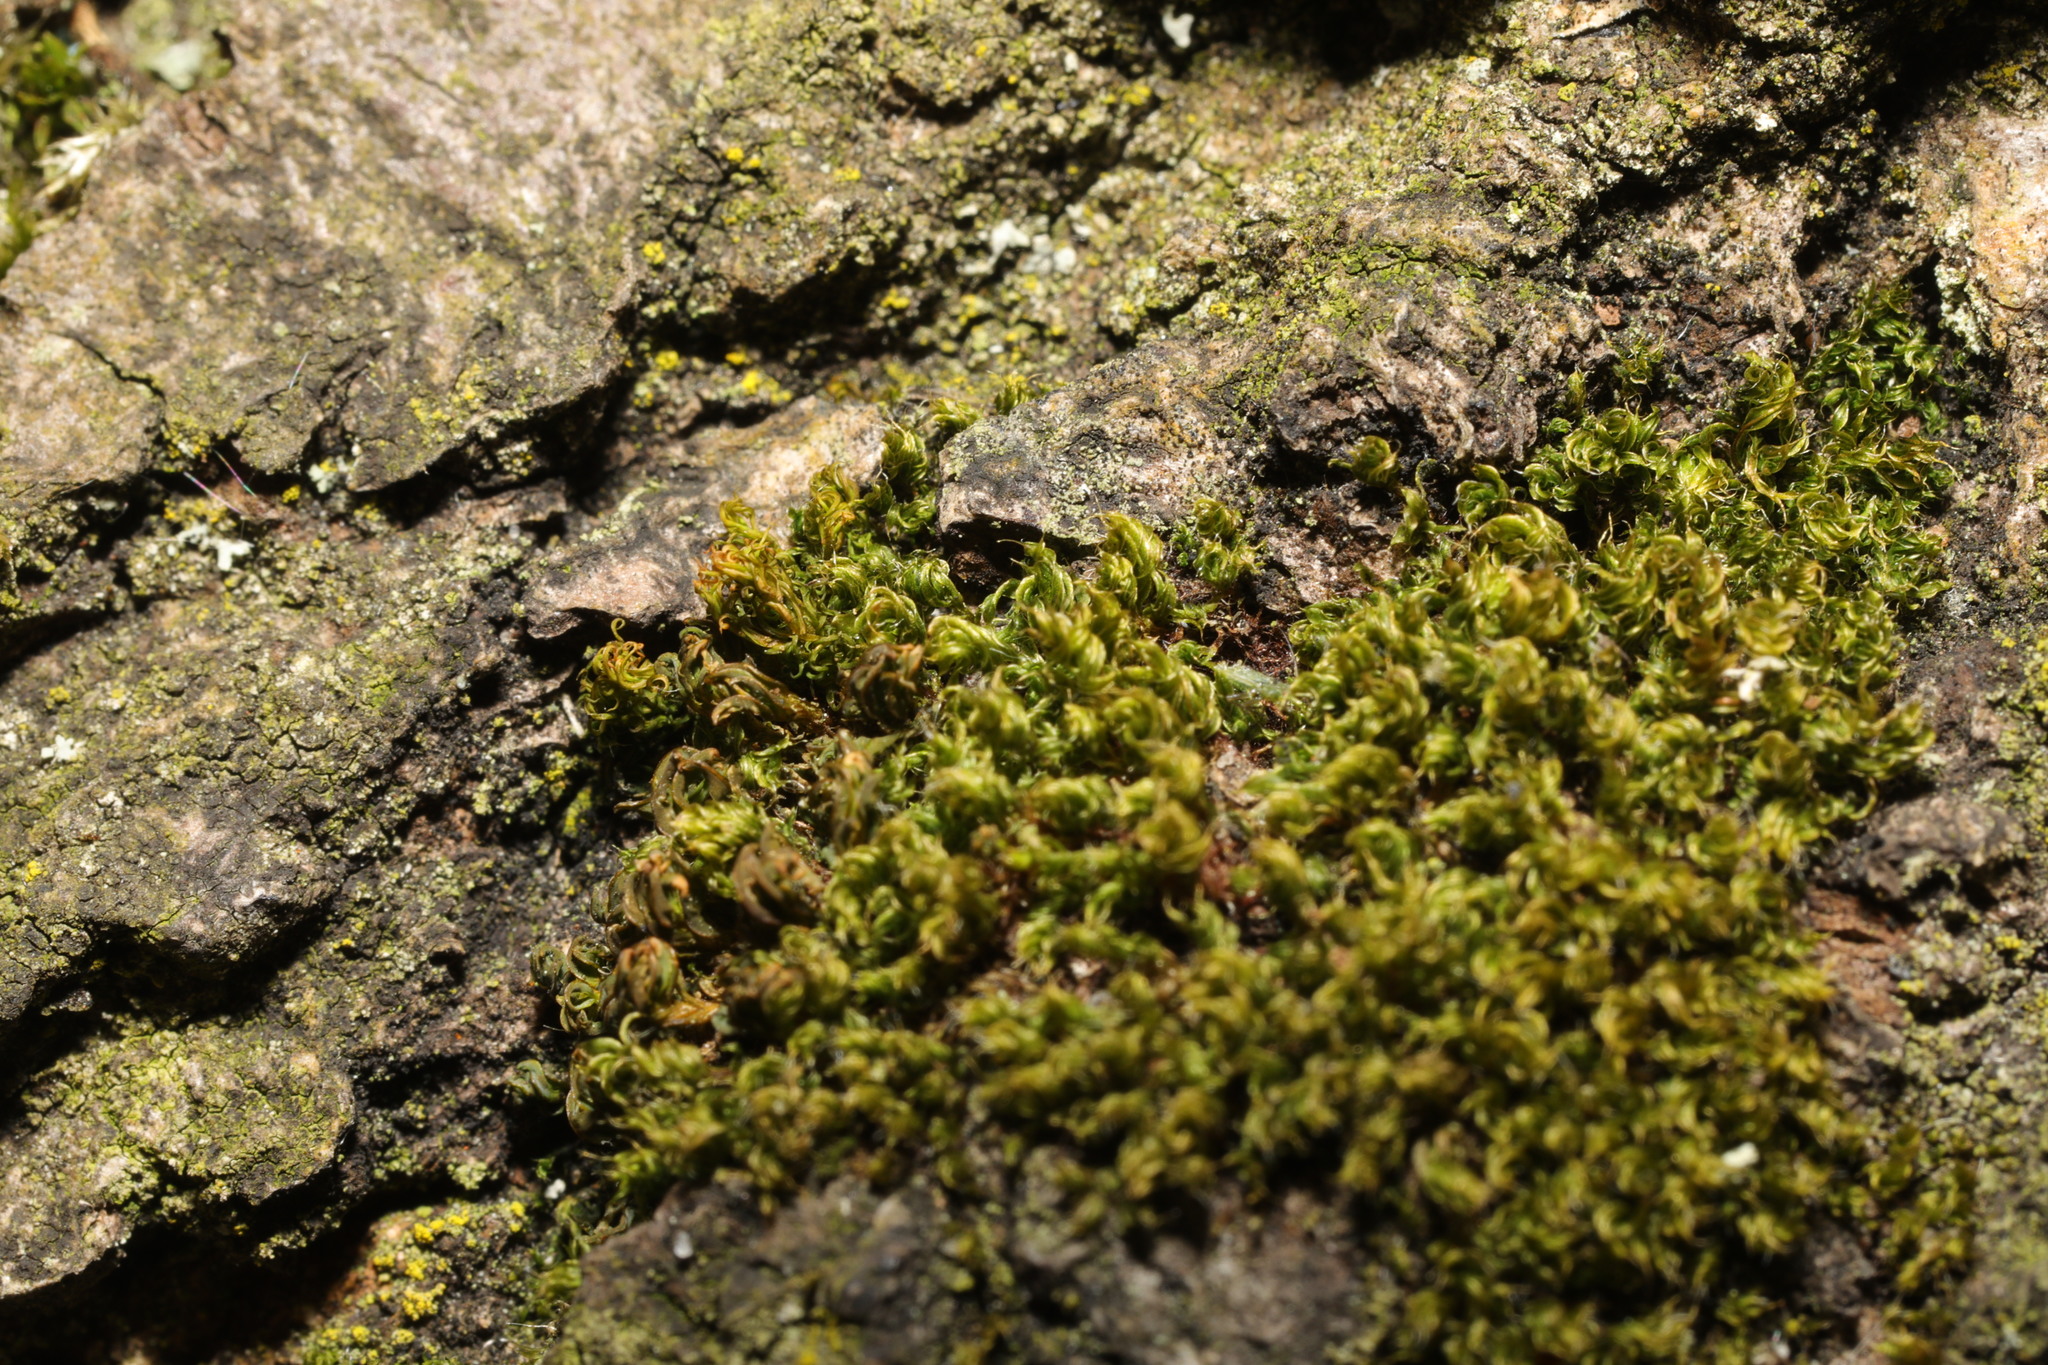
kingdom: Plantae
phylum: Bryophyta
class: Bryopsida
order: Bryales
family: Bryaceae
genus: Rosulabryum
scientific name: Rosulabryum capillare
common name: Capillary thread-moss
